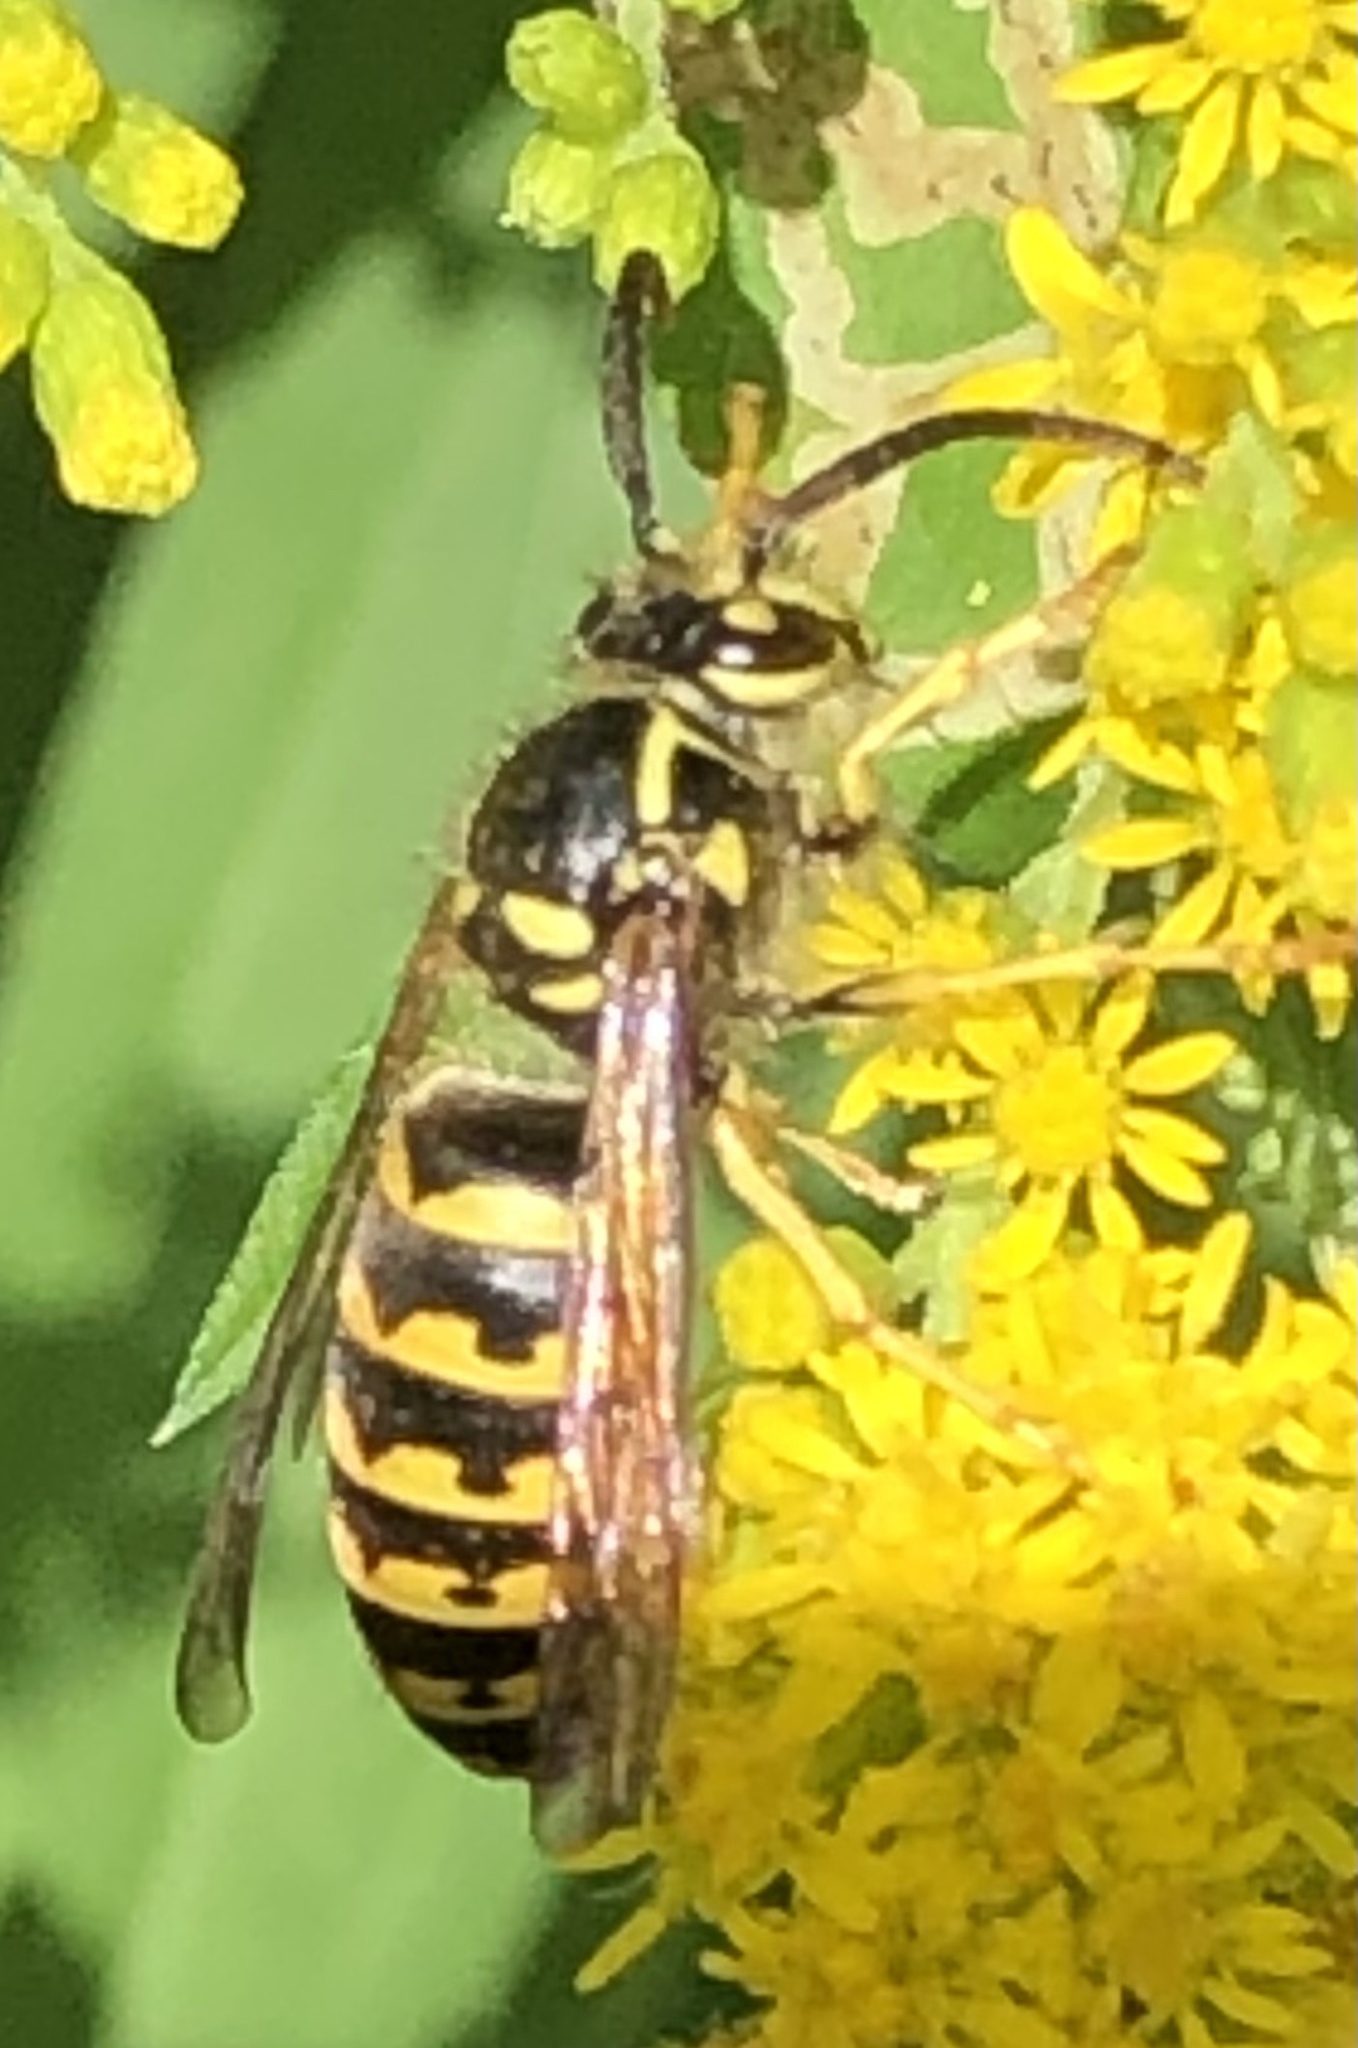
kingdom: Animalia
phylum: Arthropoda
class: Insecta
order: Hymenoptera
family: Vespidae
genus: Dolichovespula
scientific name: Dolichovespula arenaria
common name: Aerial yellowjacket
